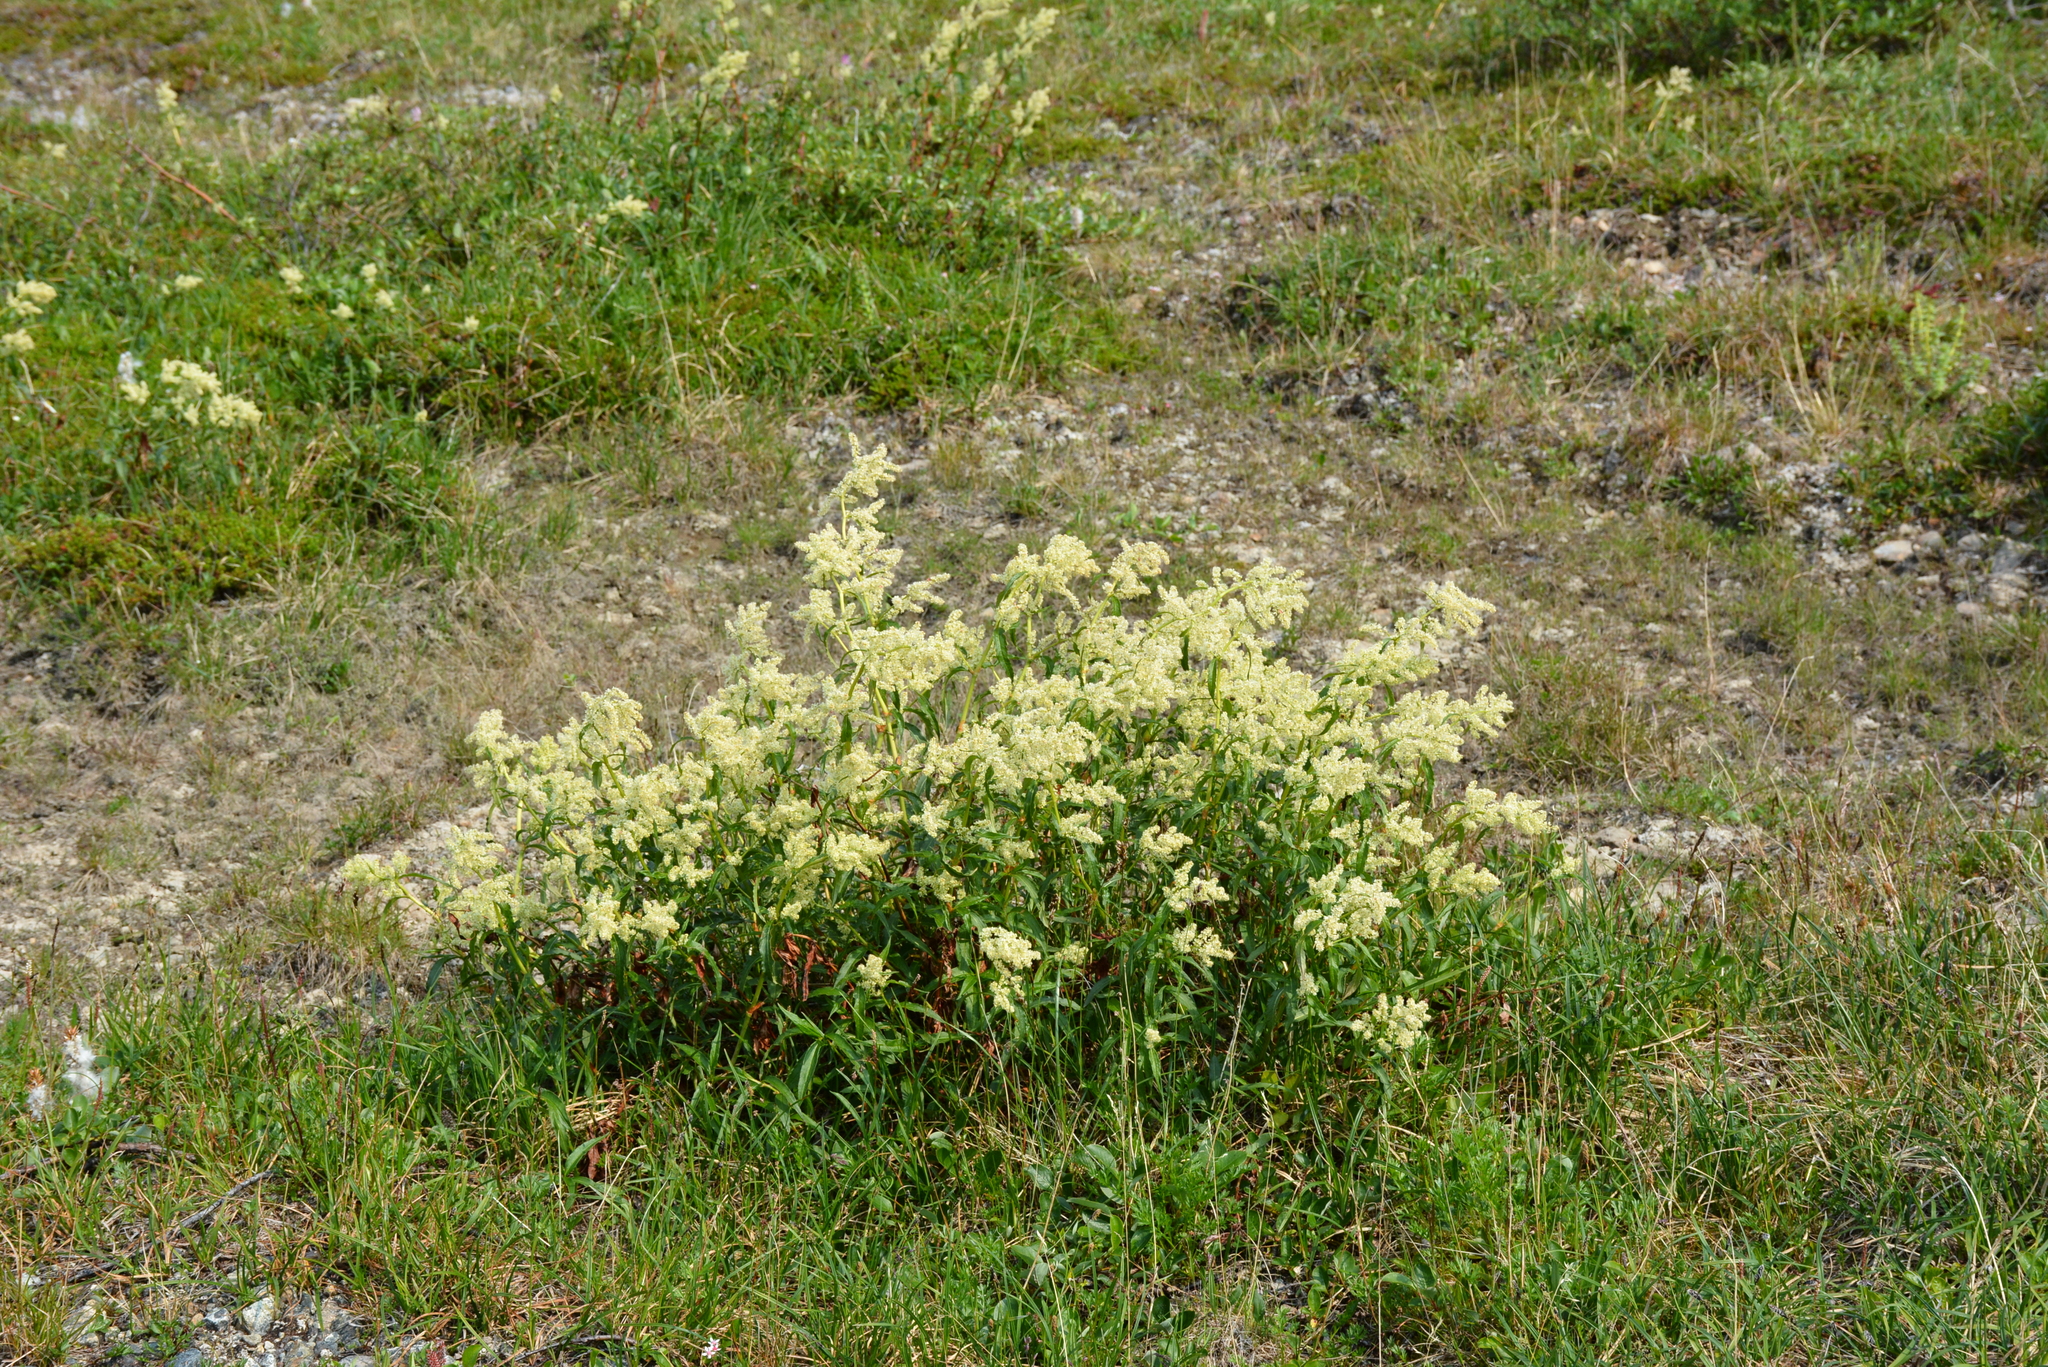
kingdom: Plantae
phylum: Tracheophyta
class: Magnoliopsida
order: Caryophyllales
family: Polygonaceae
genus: Koenigia
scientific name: Koenigia tripterocarpa
